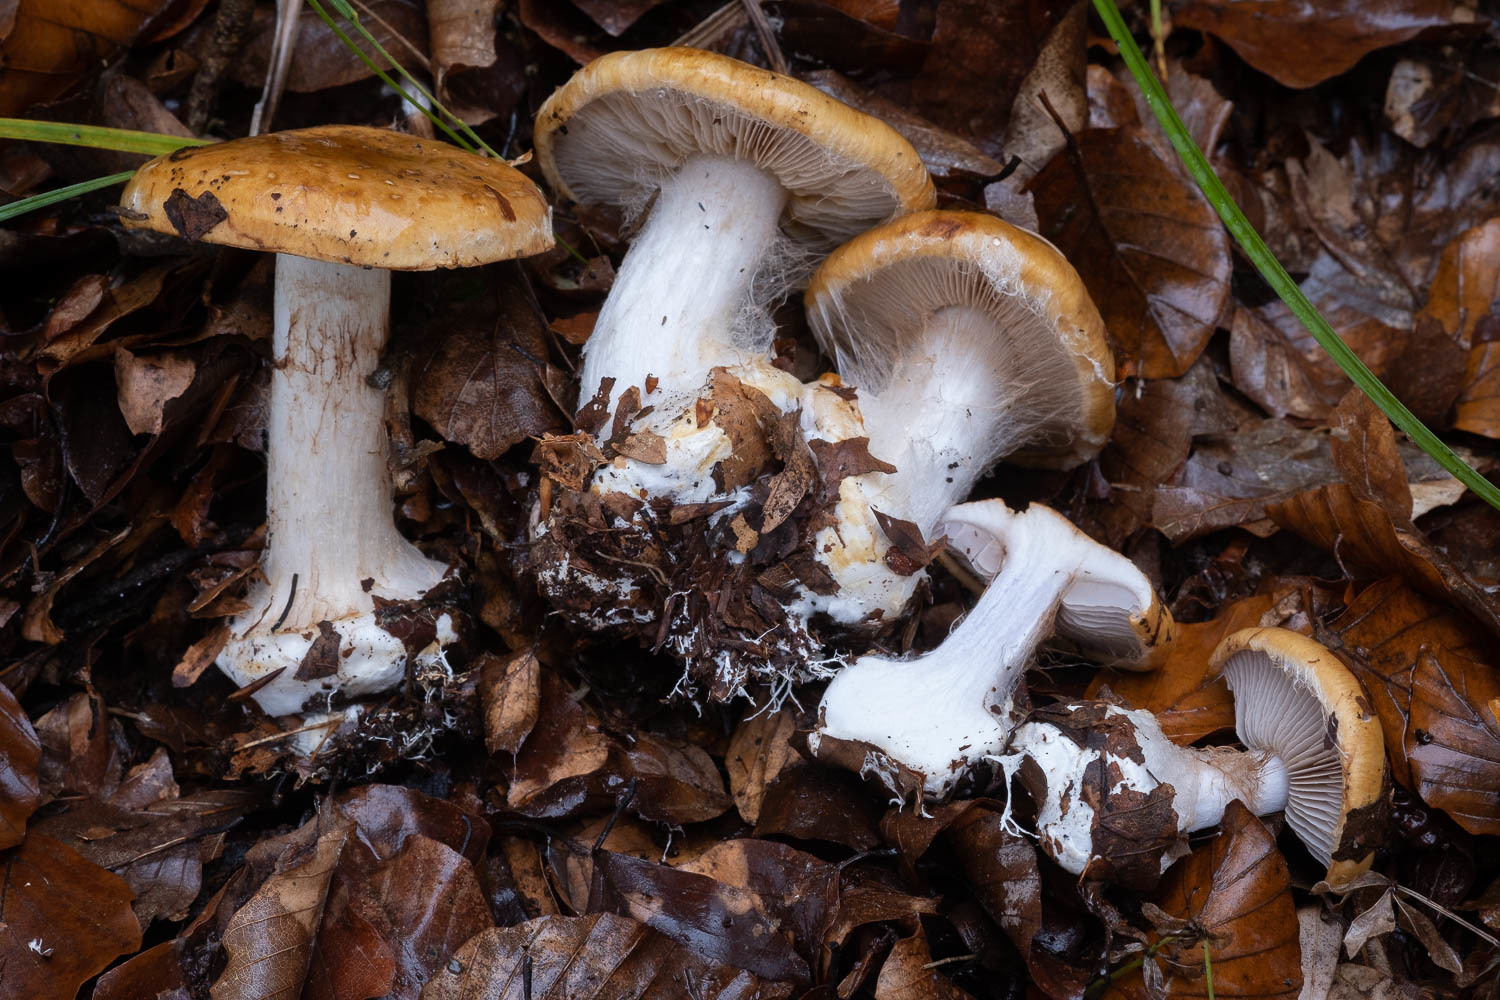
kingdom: Fungi
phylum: Basidiomycota
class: Agaricomycetes
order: Agaricales
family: Cortinariaceae
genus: Calonarius
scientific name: Calonarius saporatus
